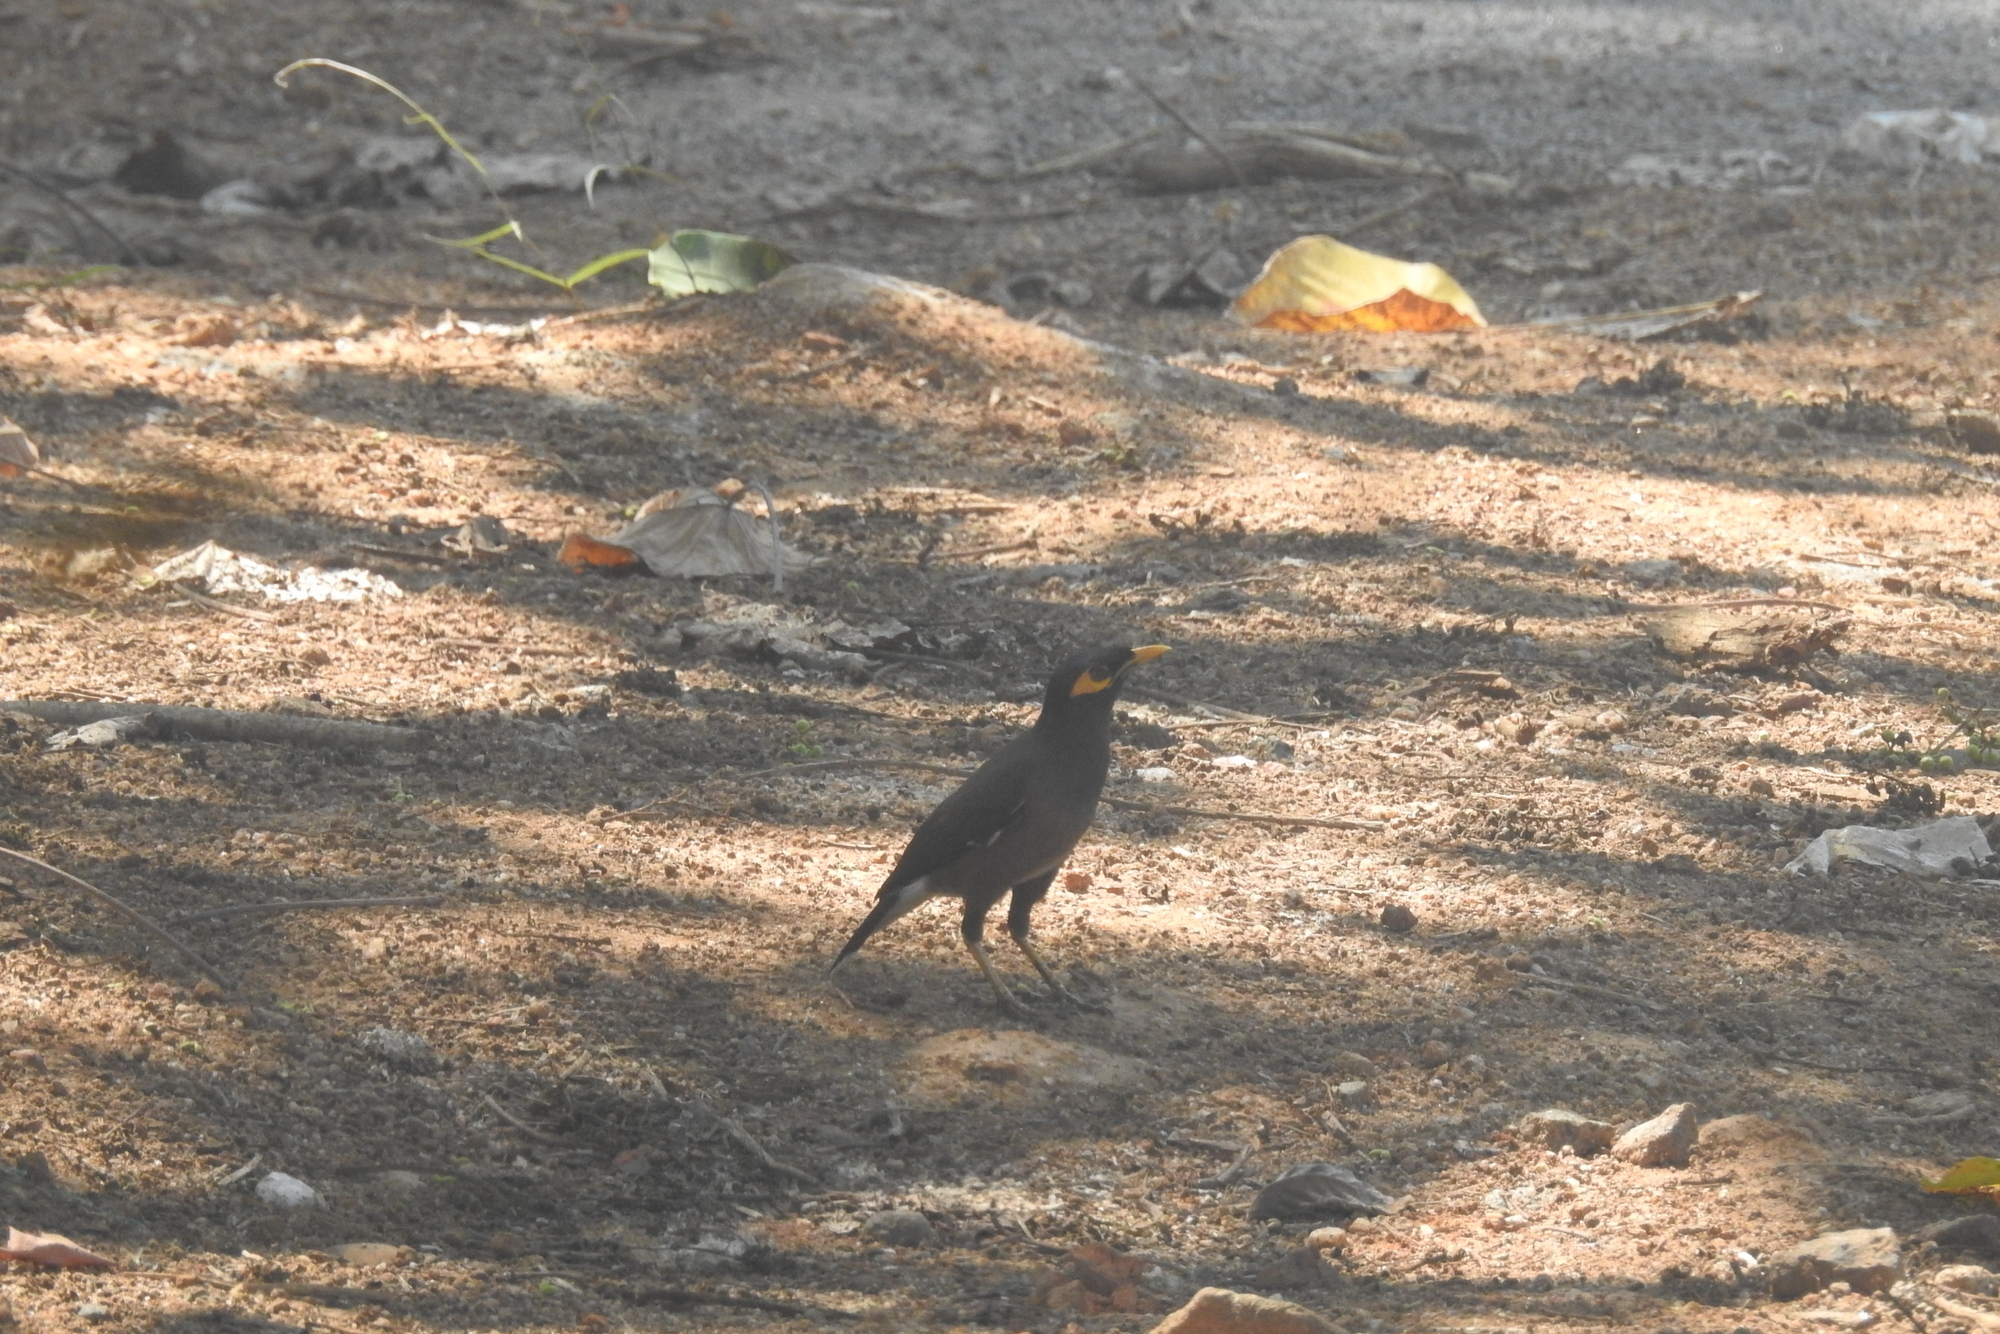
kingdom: Animalia
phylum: Chordata
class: Aves
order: Passeriformes
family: Sturnidae
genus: Acridotheres
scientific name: Acridotheres tristis
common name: Common myna
